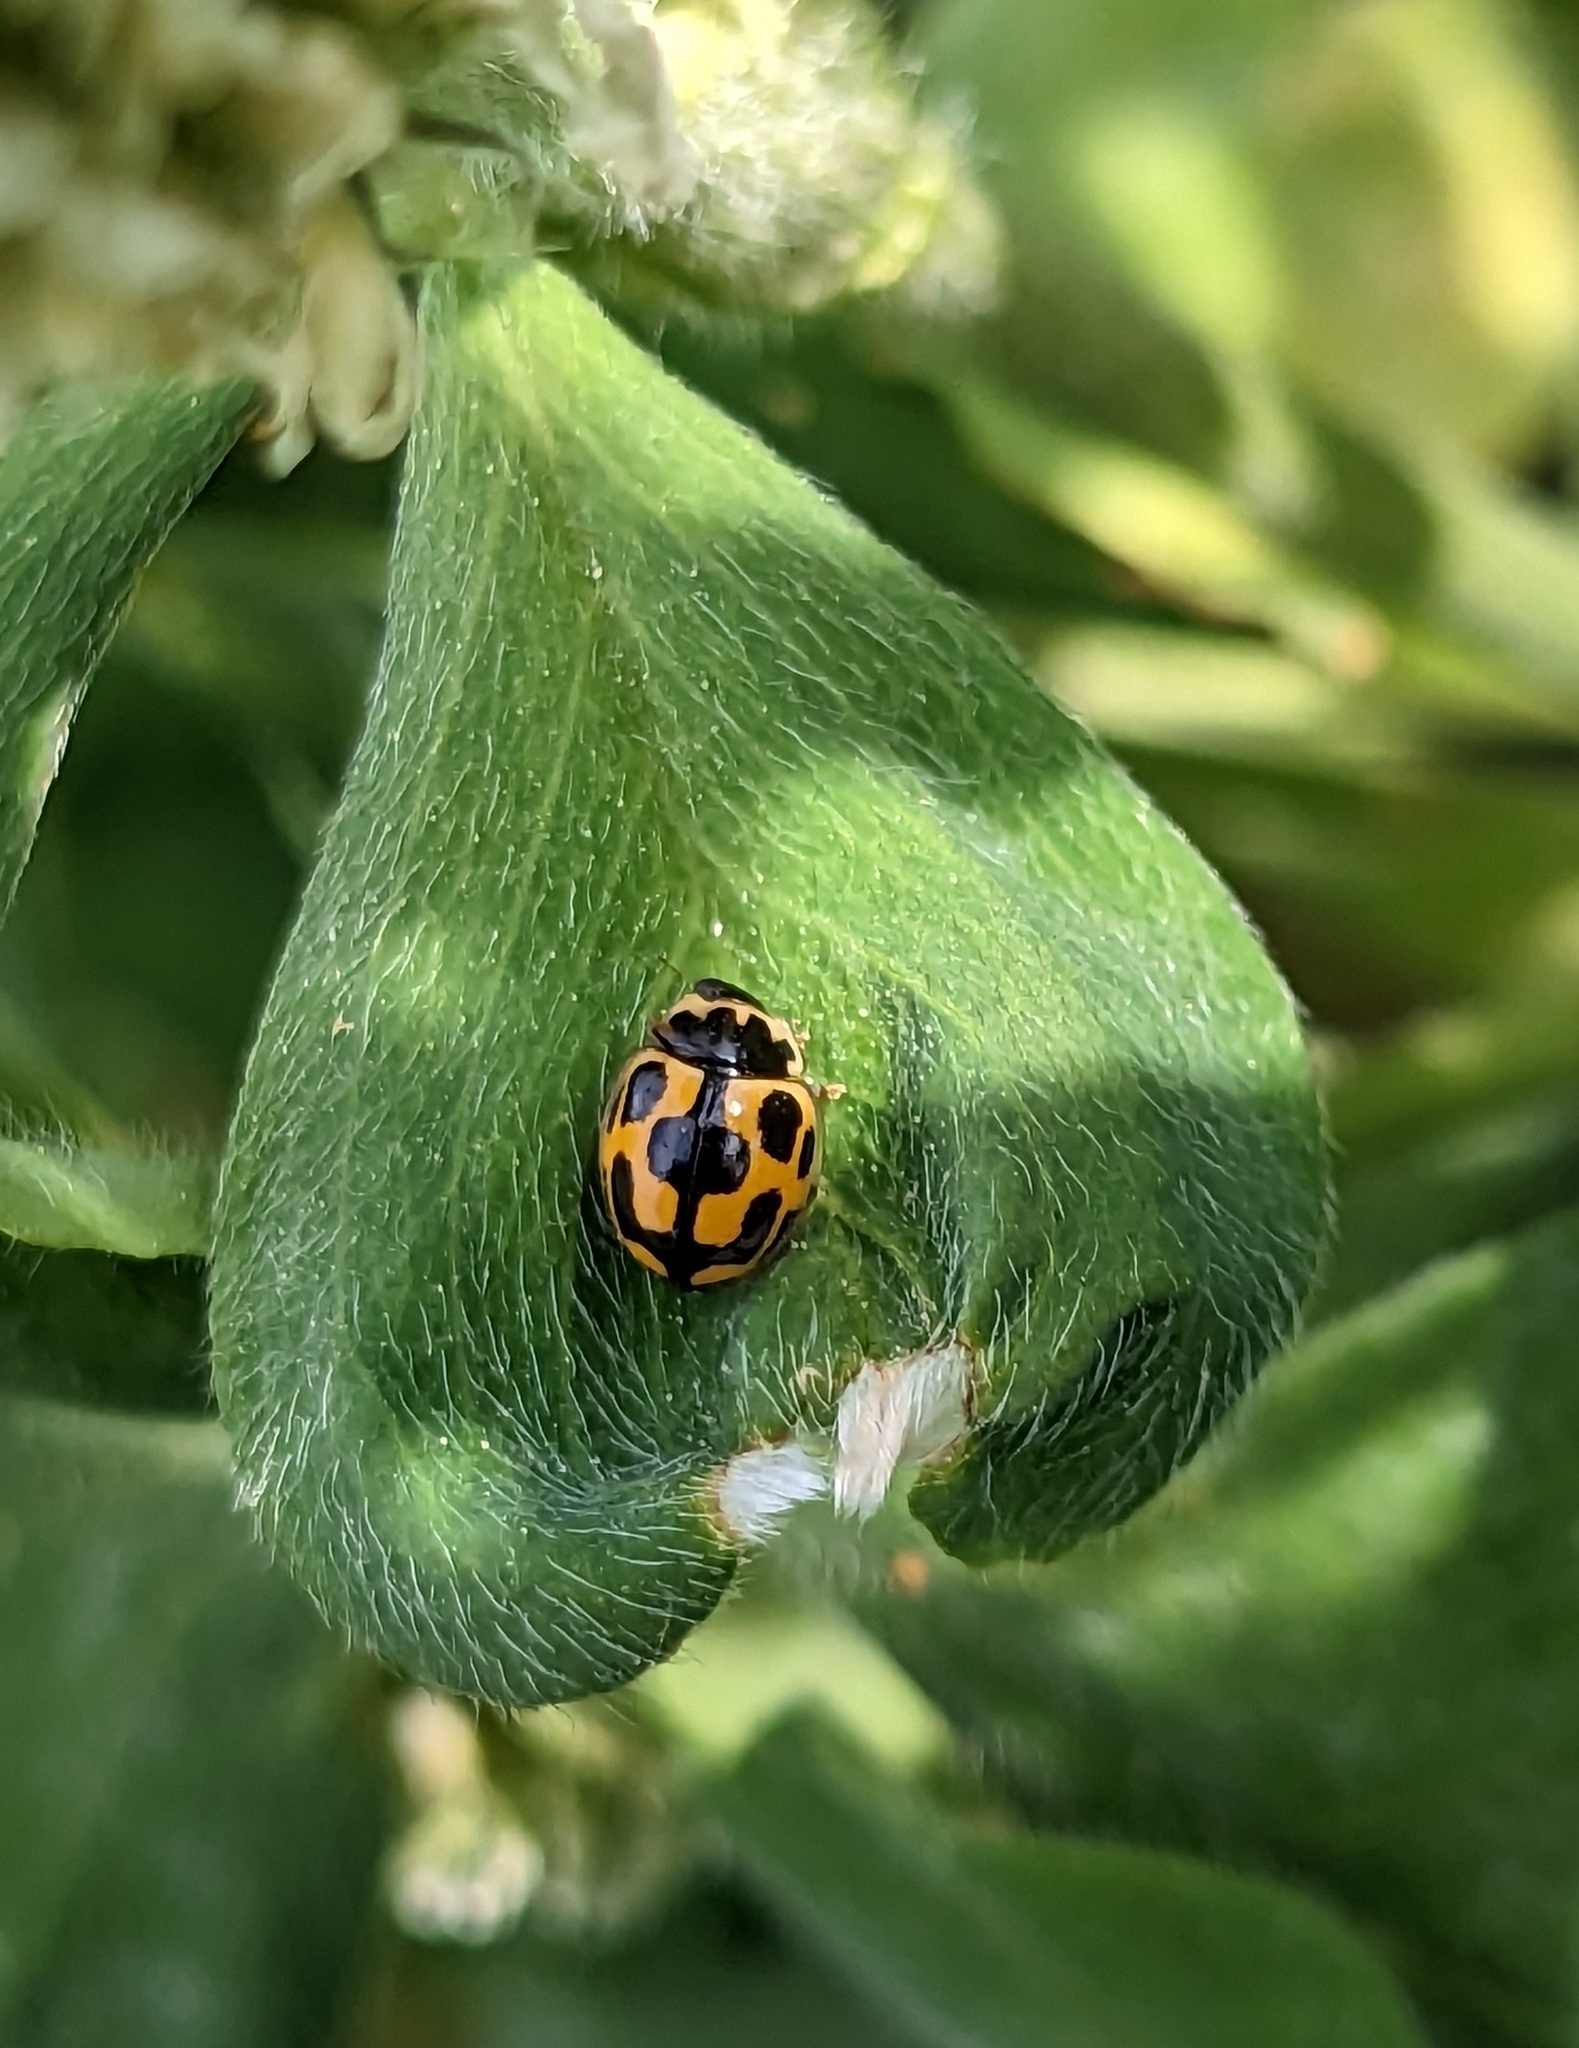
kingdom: Animalia
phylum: Arthropoda
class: Insecta
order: Coleoptera
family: Coccinellidae
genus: Propylaea
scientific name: Propylaea quatuordecimpunctata
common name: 14-spotted ladybird beetle
